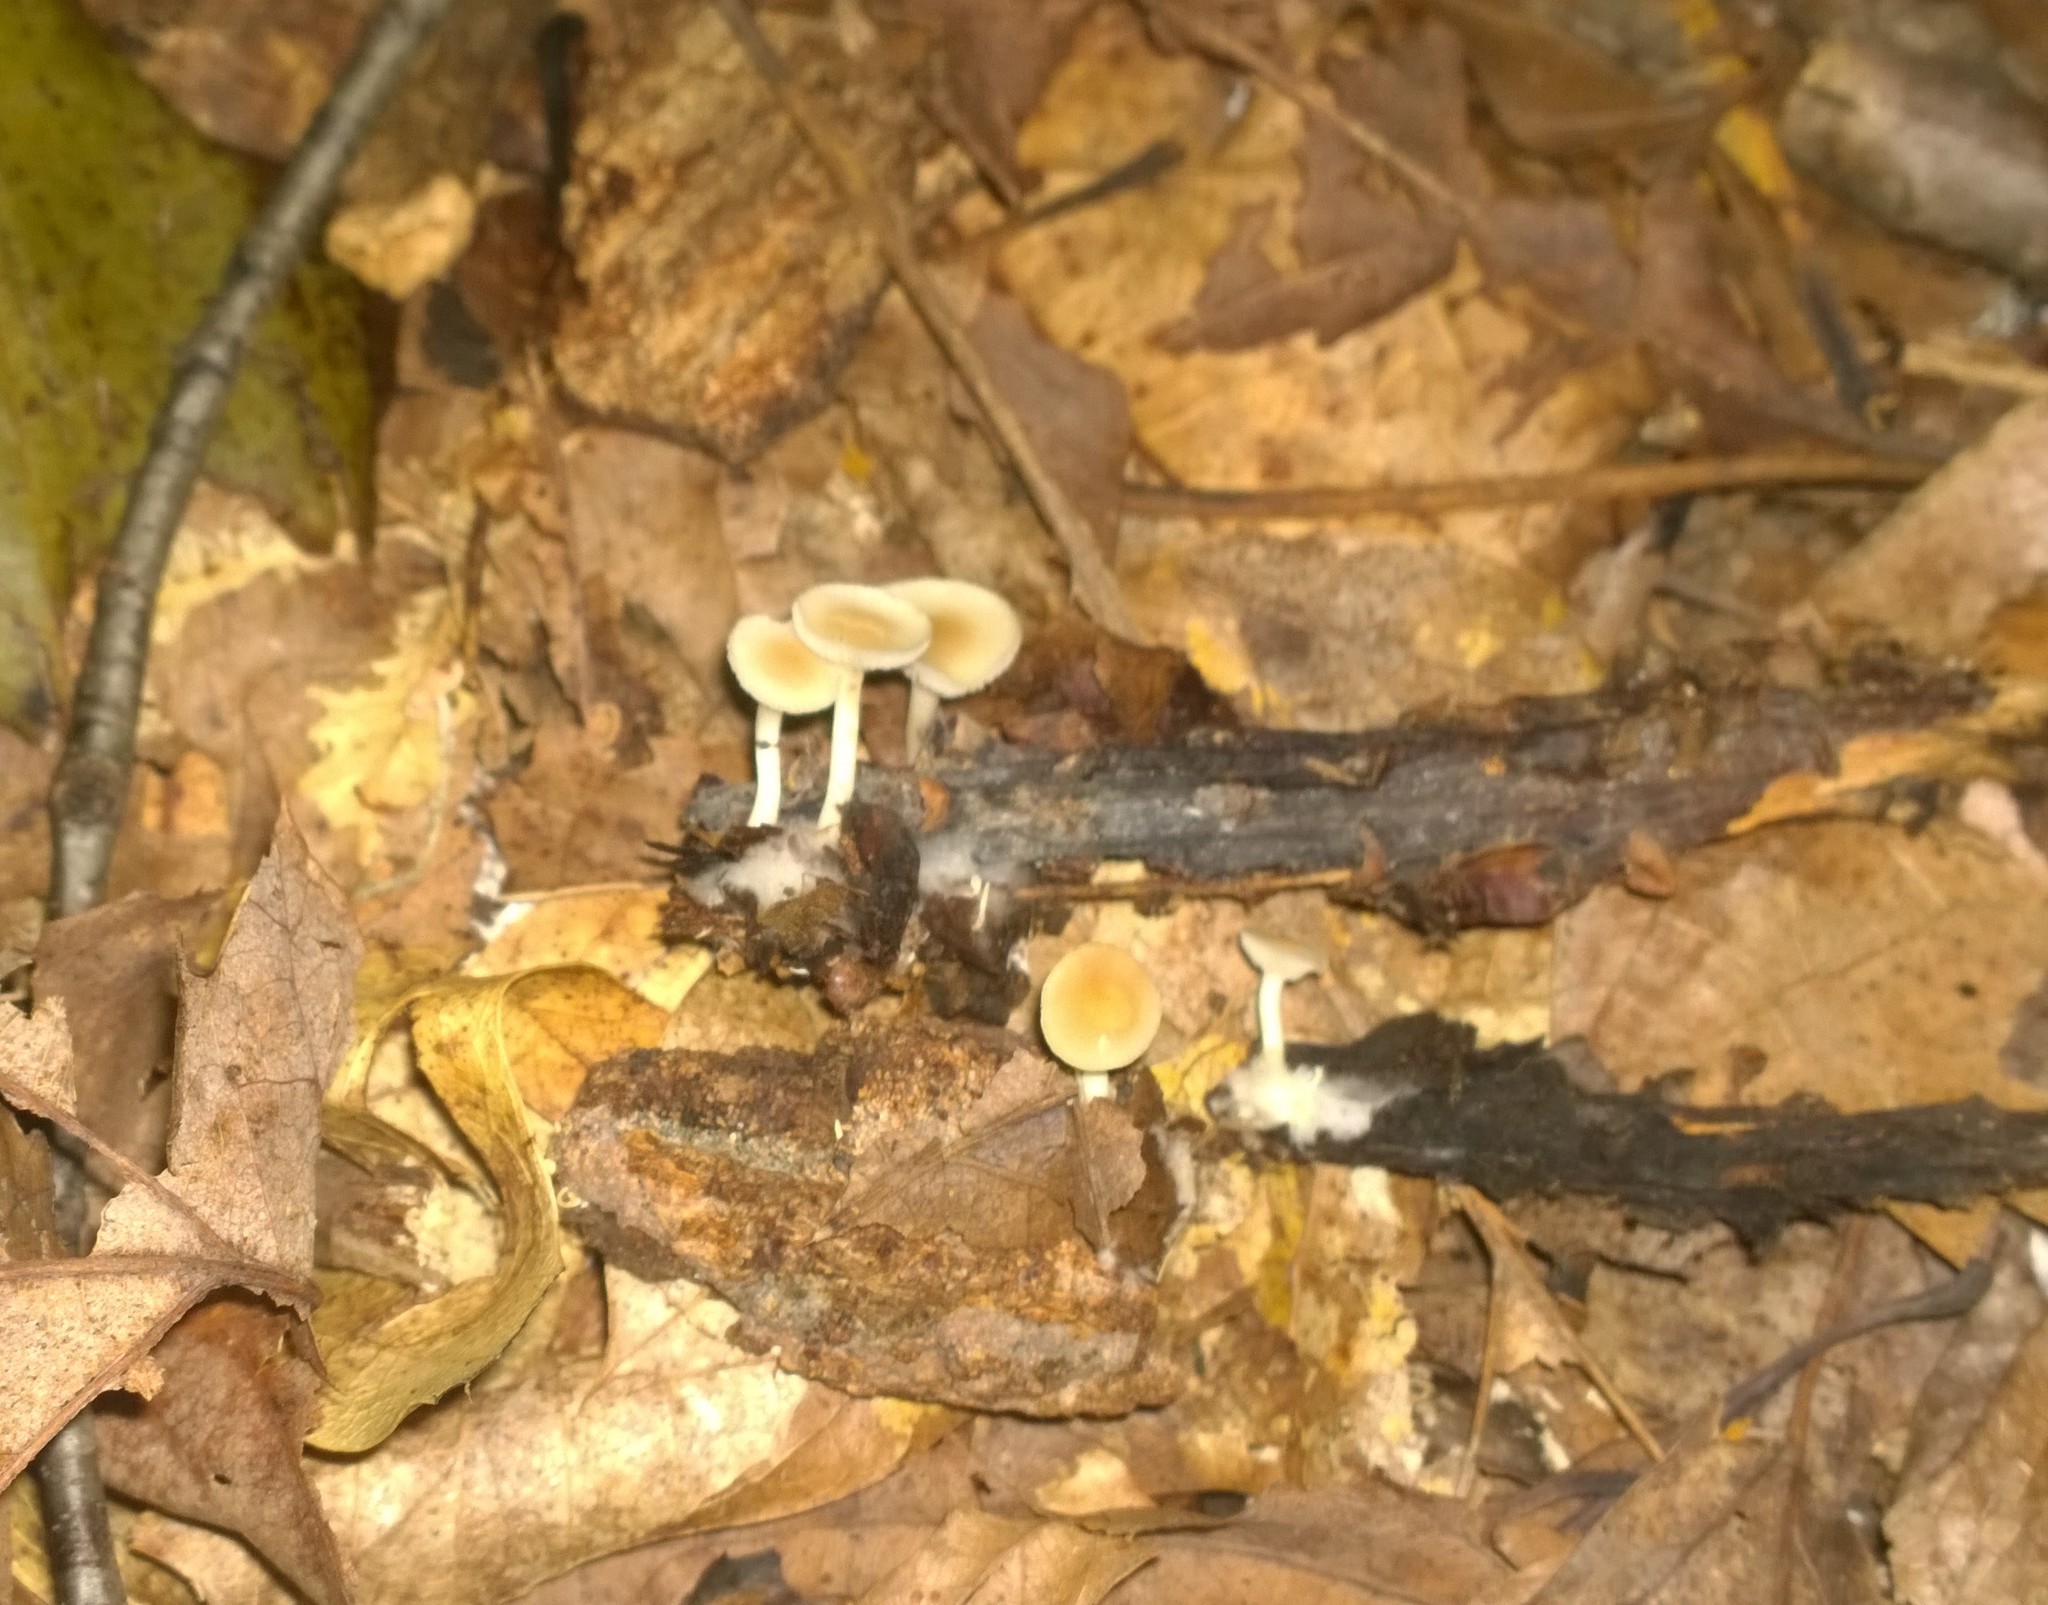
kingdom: Fungi
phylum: Basidiomycota
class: Agaricomycetes
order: Agaricales
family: Tricholomataceae
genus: Clitocybe
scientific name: Clitocybe americana
